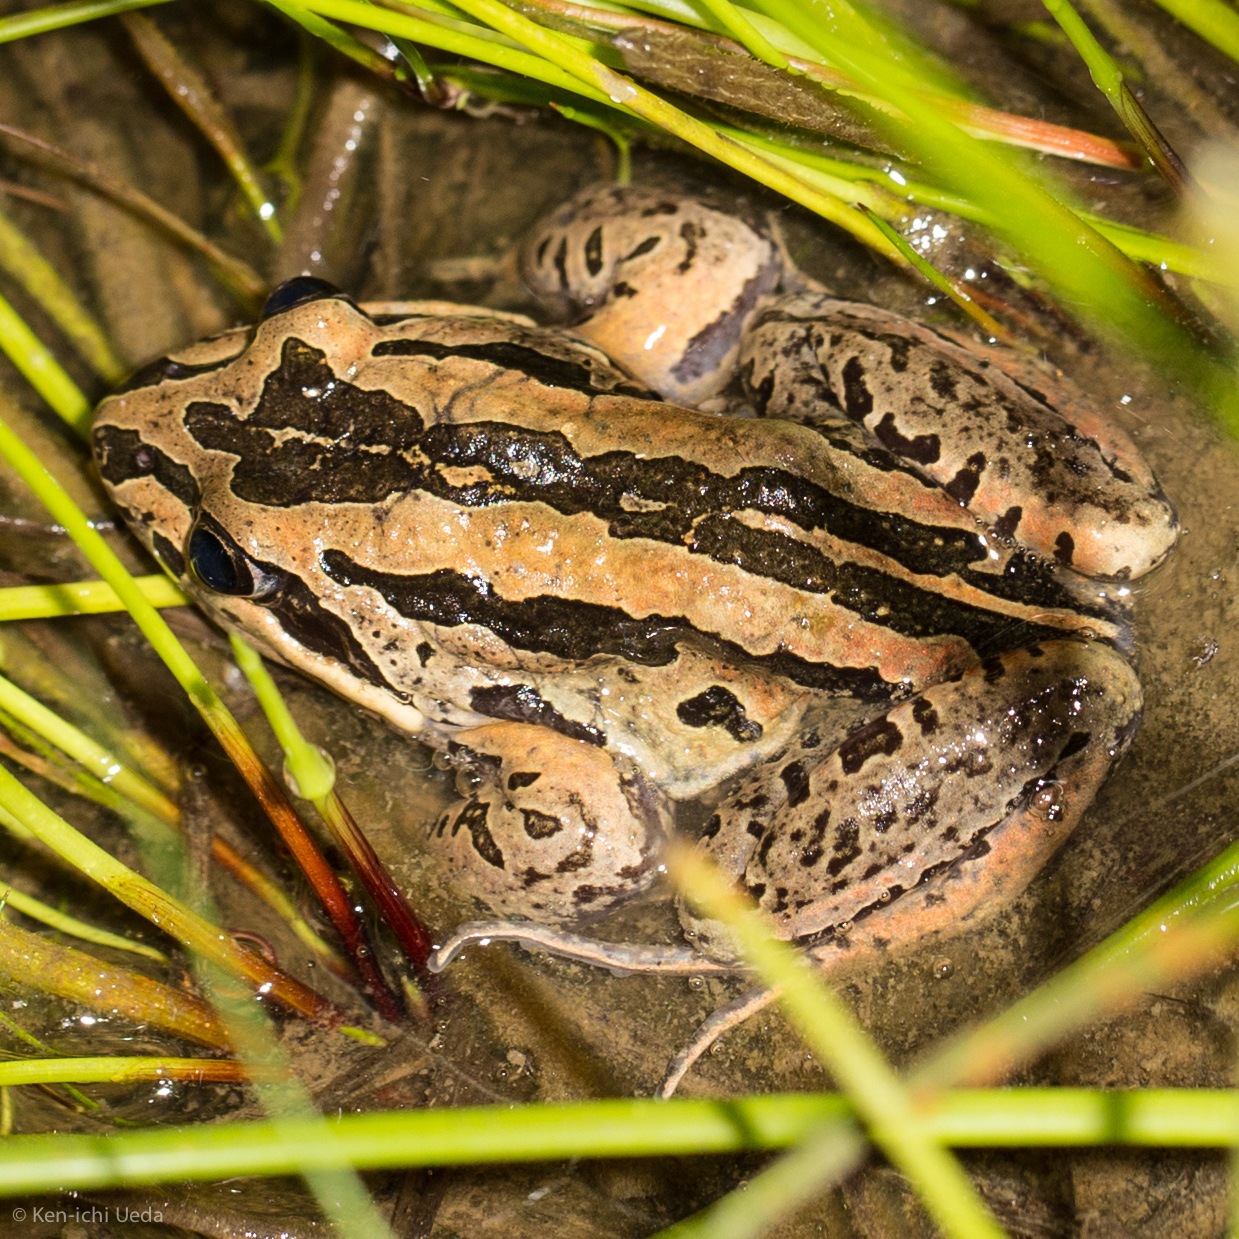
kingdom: Animalia
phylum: Chordata
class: Amphibia
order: Anura
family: Limnodynastidae
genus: Limnodynastes
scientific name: Limnodynastes peronii
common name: Brown frog
